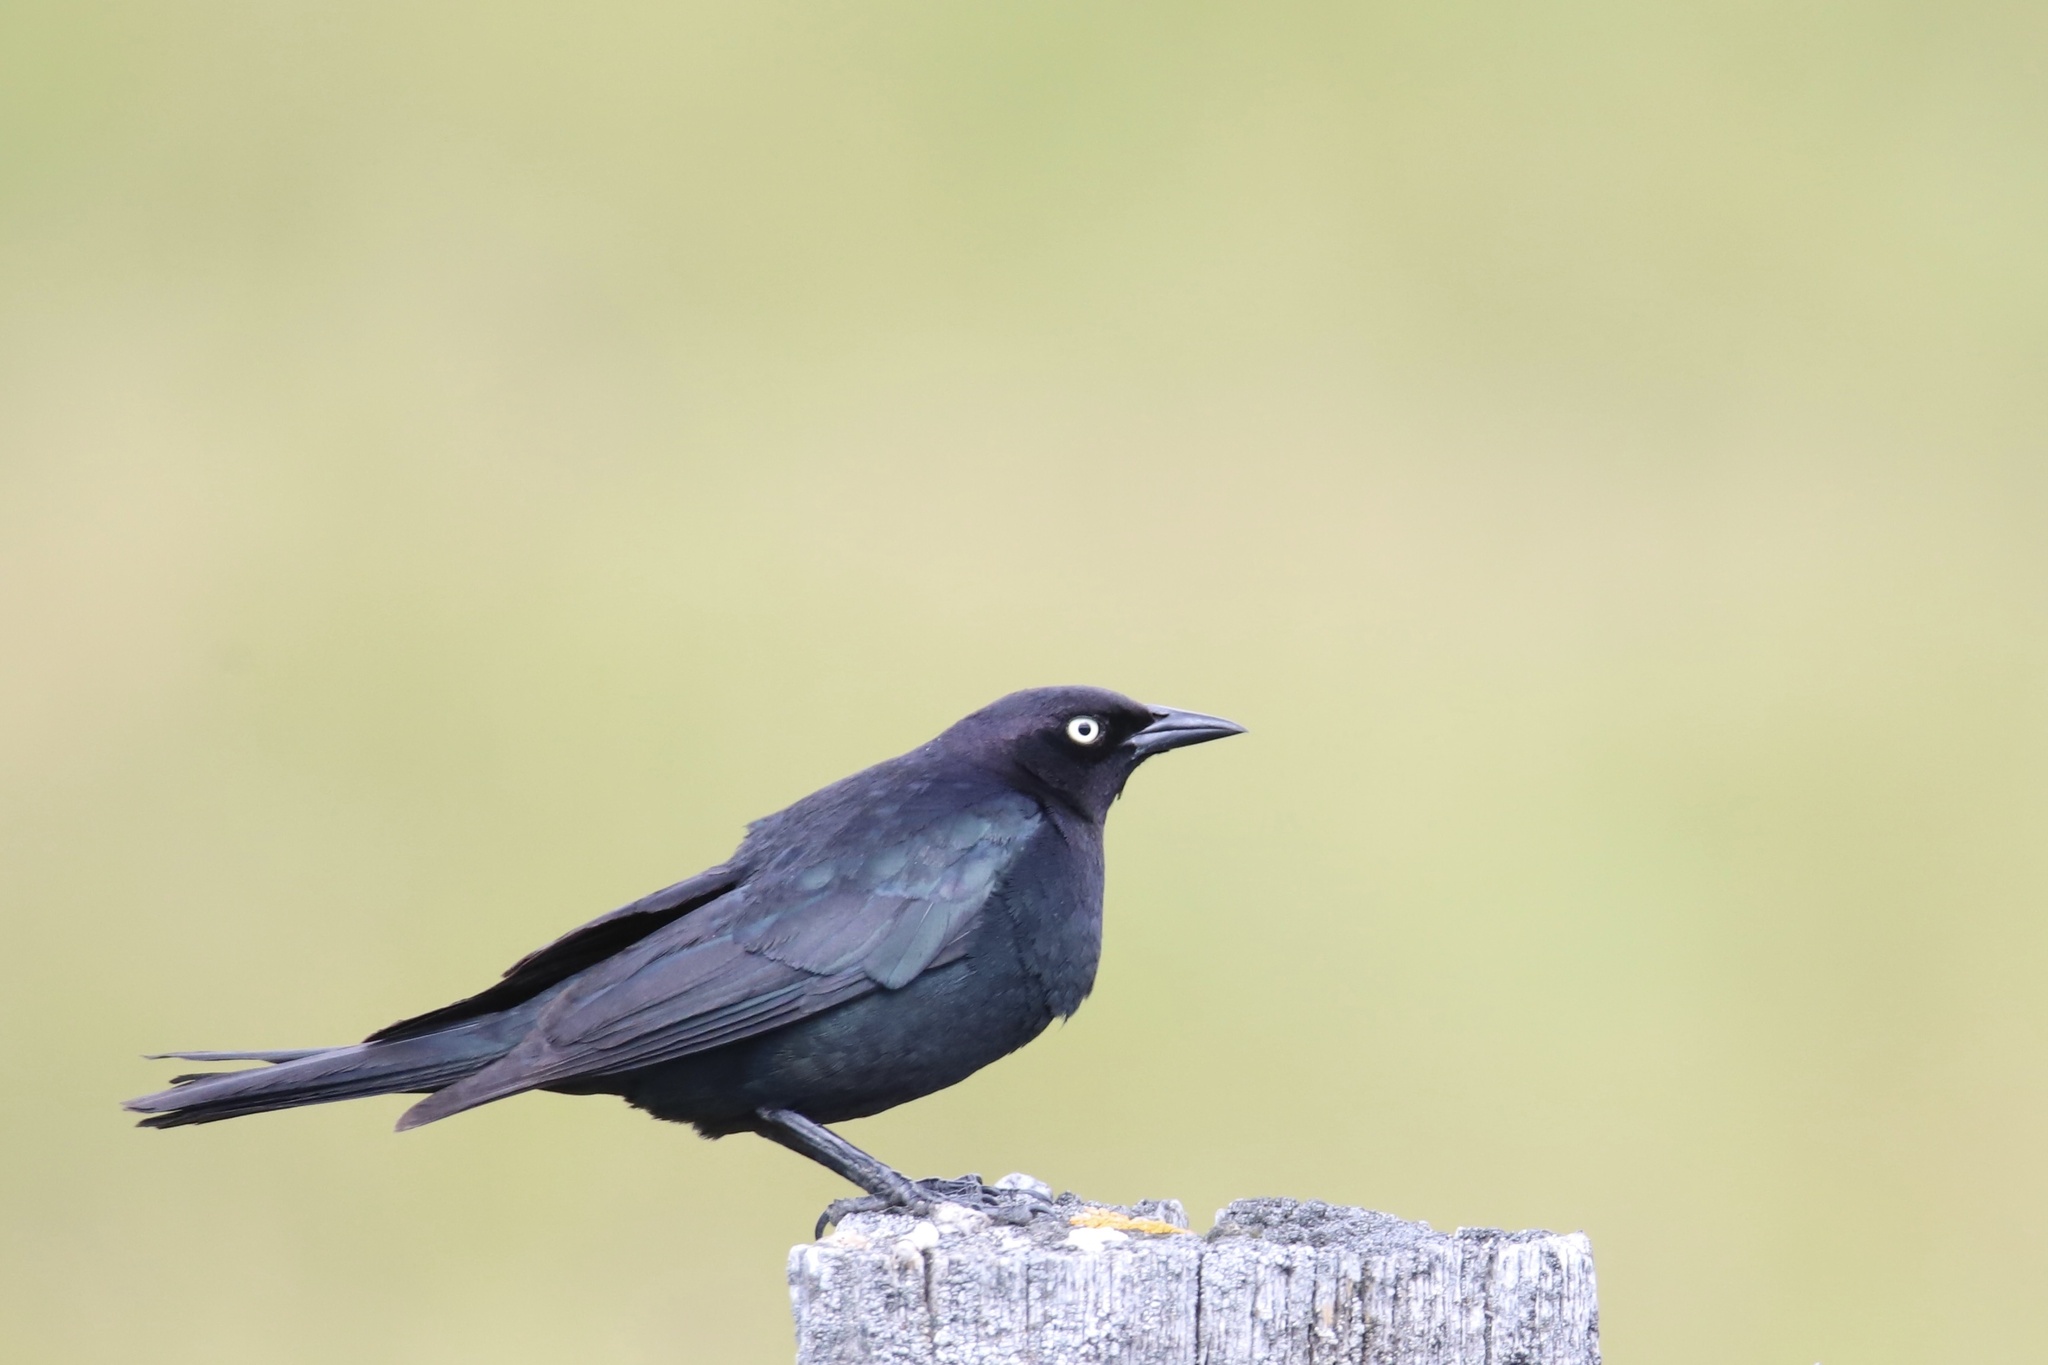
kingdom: Animalia
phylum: Chordata
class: Aves
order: Passeriformes
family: Icteridae
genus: Euphagus
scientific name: Euphagus cyanocephalus
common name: Brewer's blackbird
